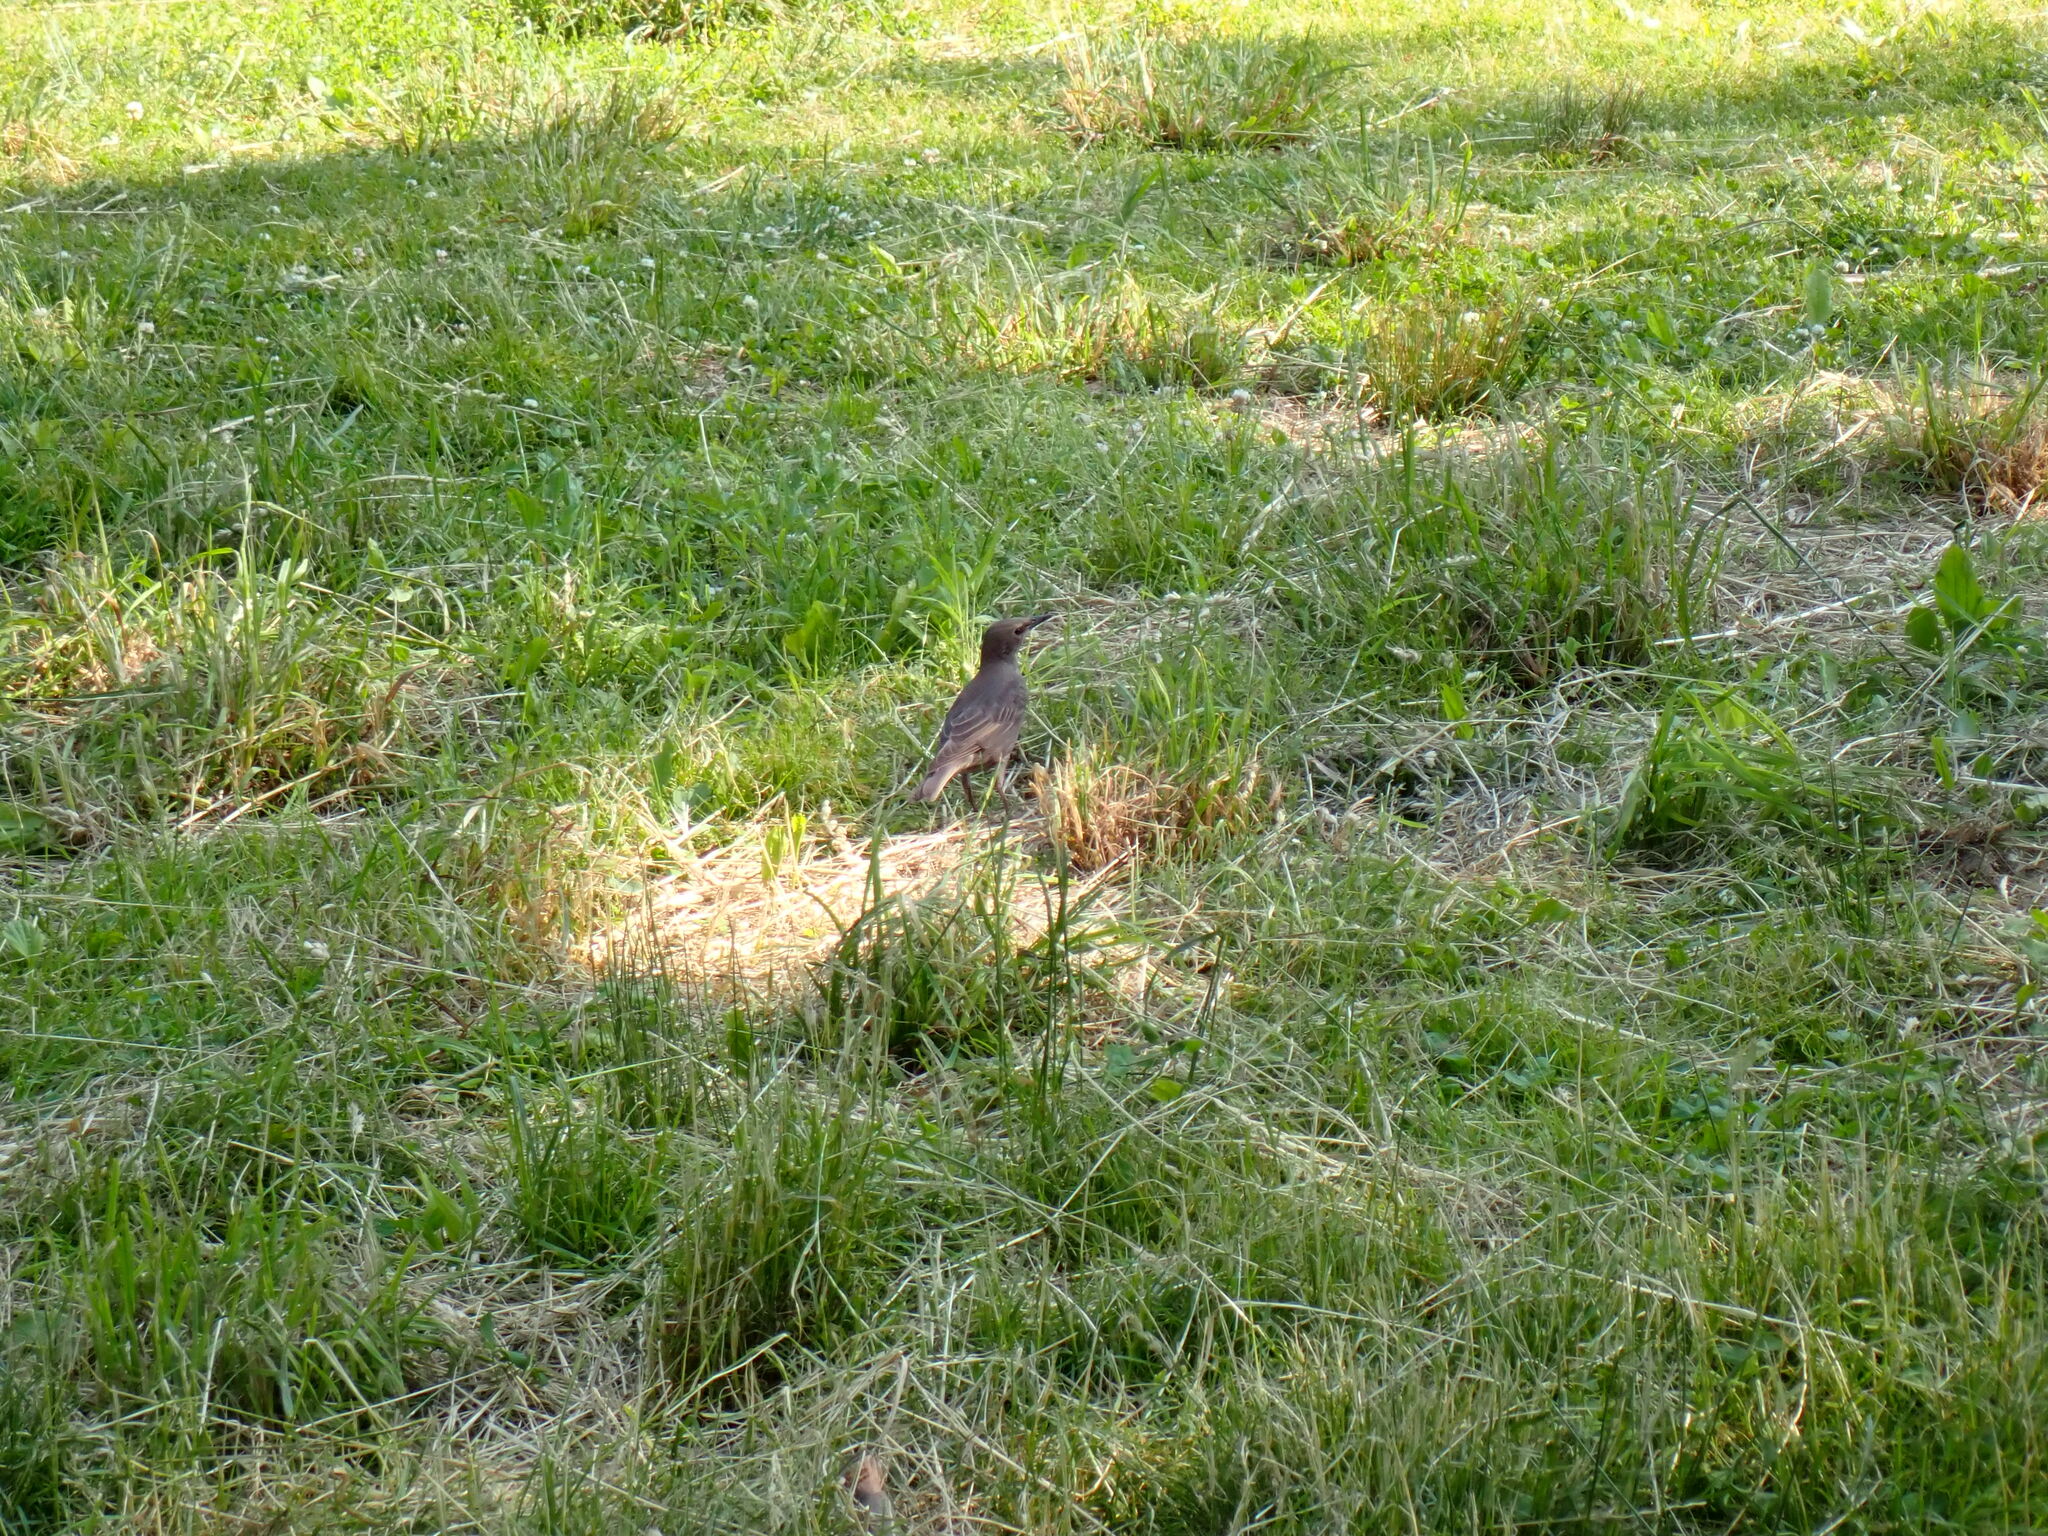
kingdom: Animalia
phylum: Chordata
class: Aves
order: Passeriformes
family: Sturnidae
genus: Sturnus
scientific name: Sturnus vulgaris
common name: Common starling
